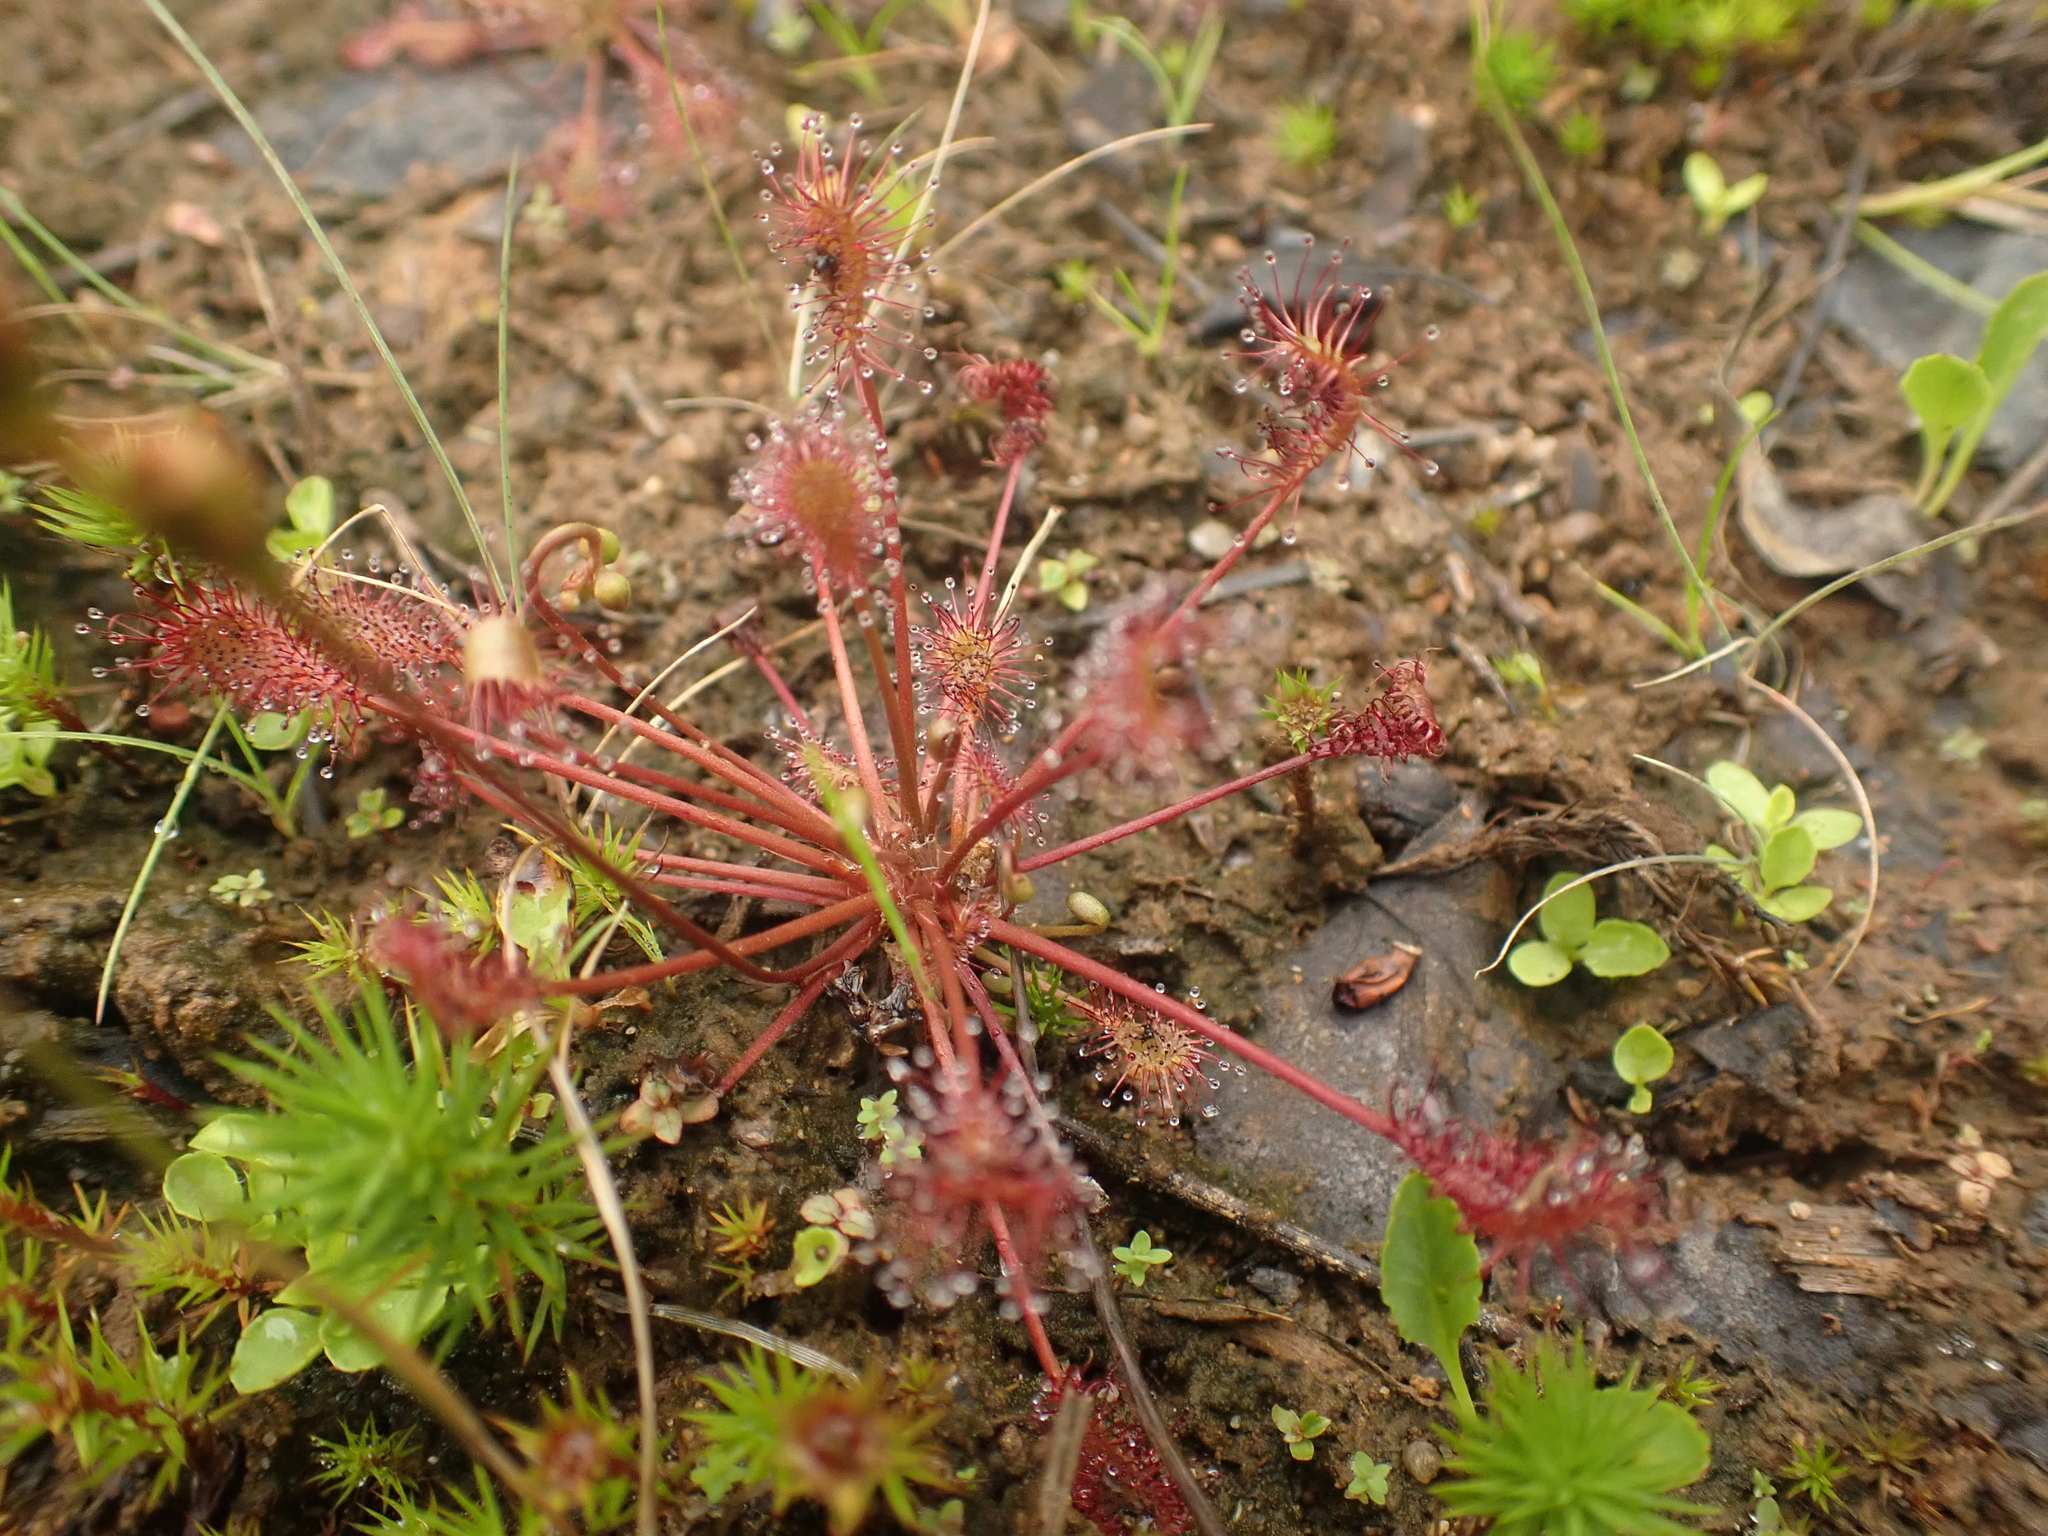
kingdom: Plantae
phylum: Tracheophyta
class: Magnoliopsida
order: Caryophyllales
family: Droseraceae
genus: Drosera
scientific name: Drosera intermedia
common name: Oblong-leaved sundew
